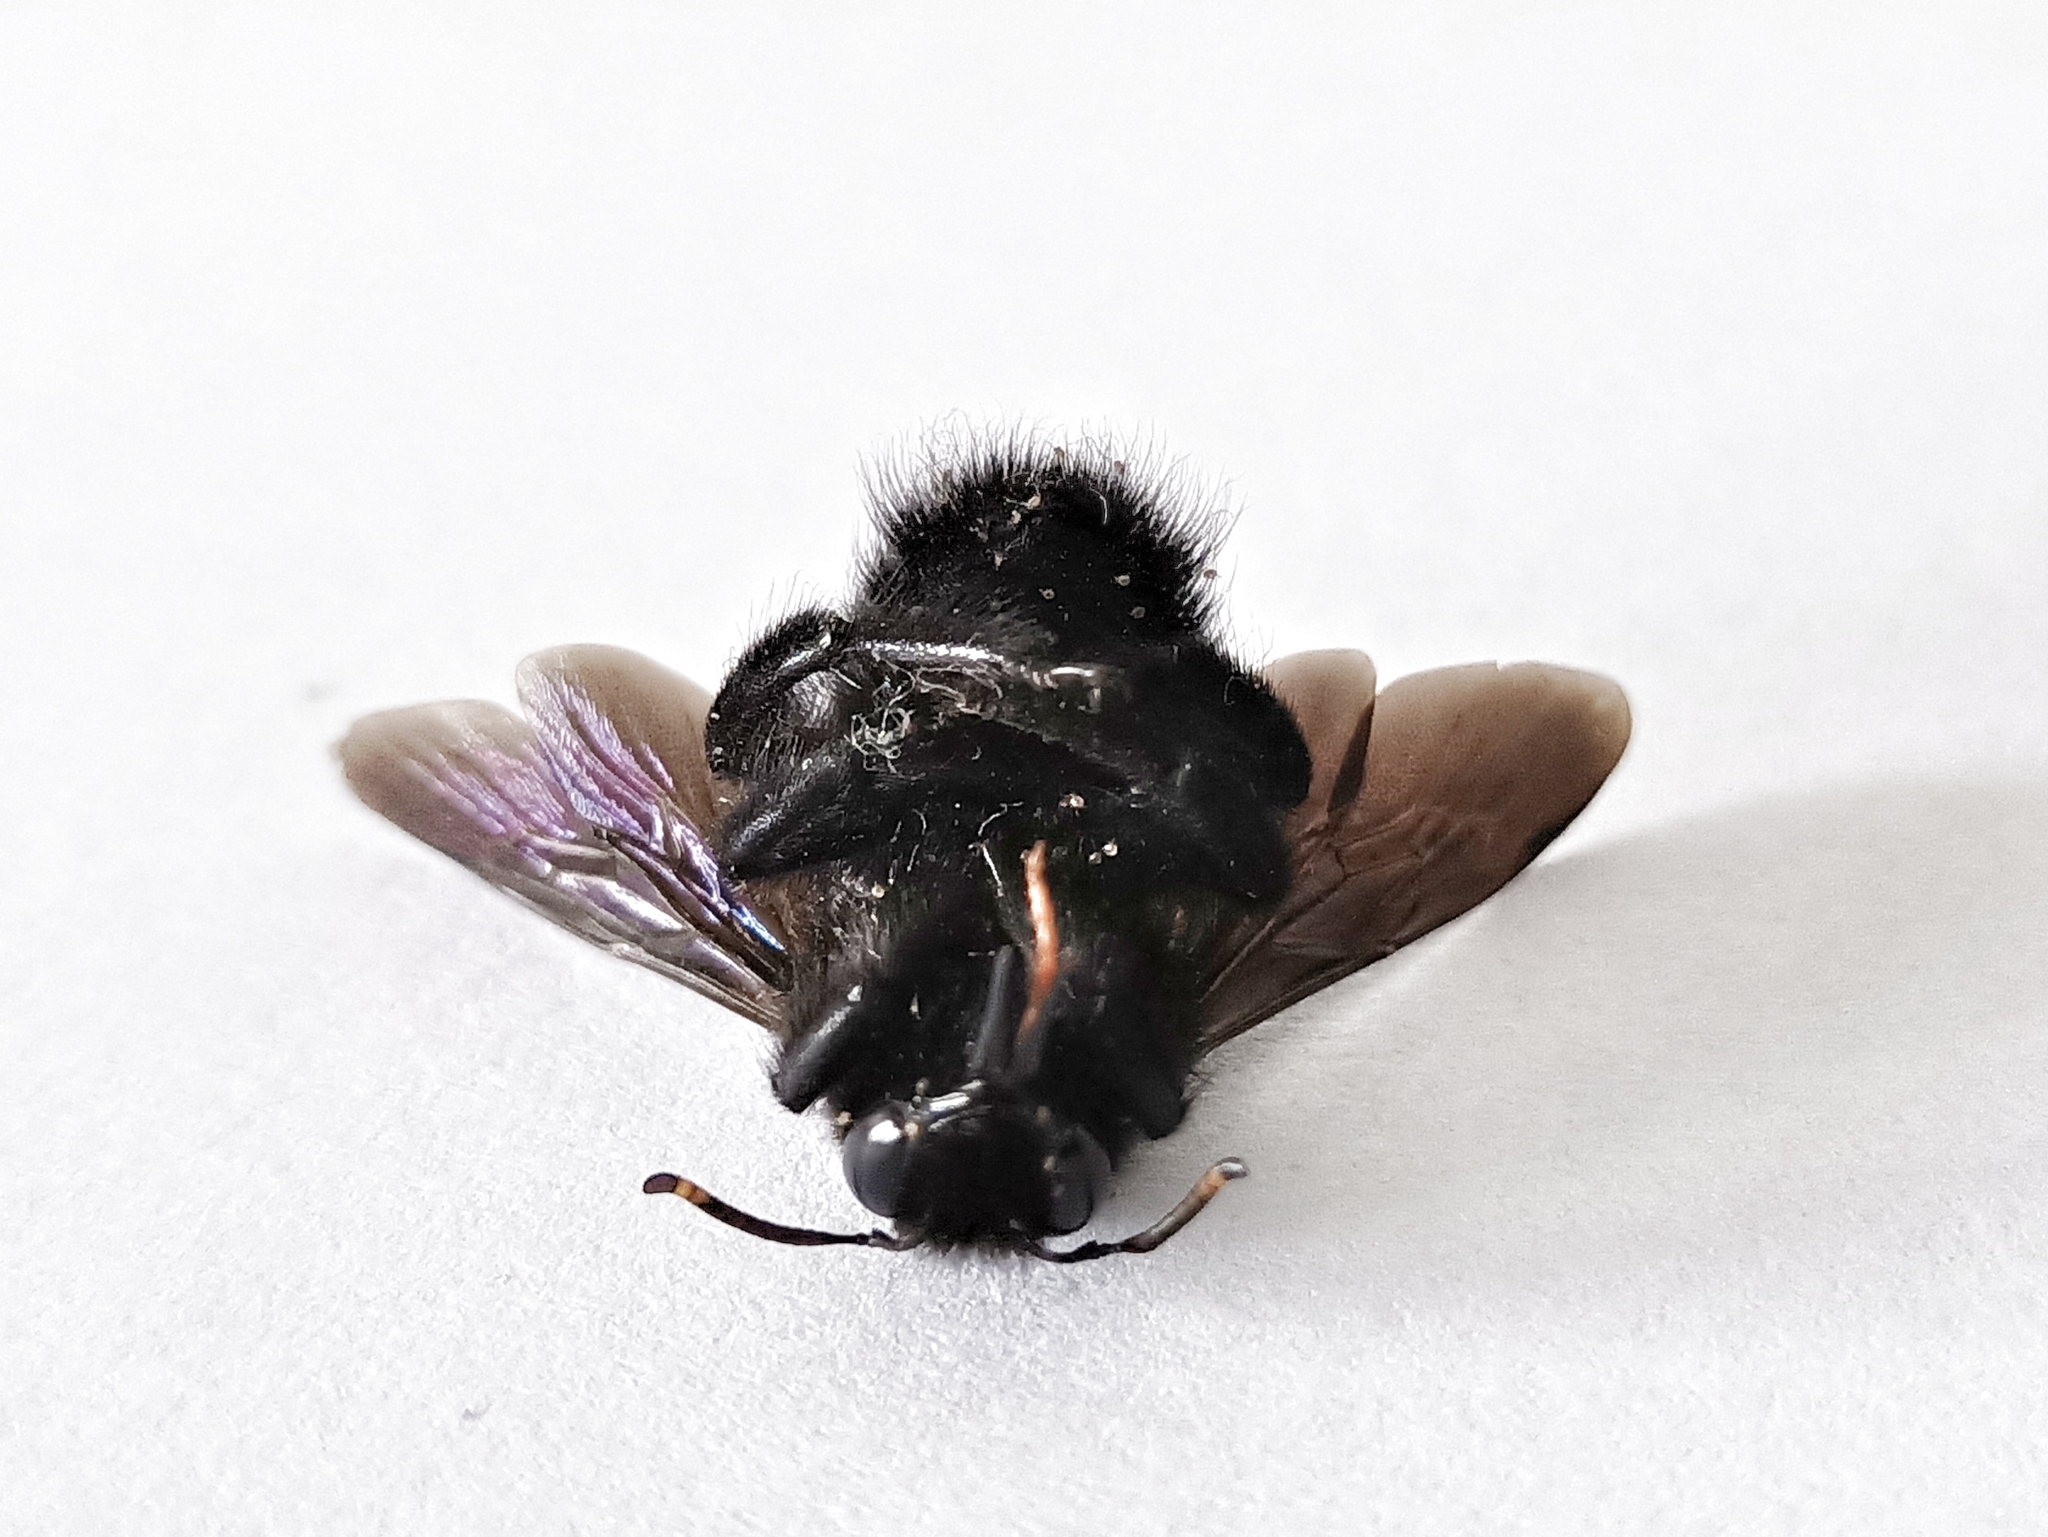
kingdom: Animalia
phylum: Arthropoda
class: Insecta
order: Hymenoptera
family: Apidae
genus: Xylocopa
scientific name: Xylocopa violacea
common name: Violet carpenter bee
